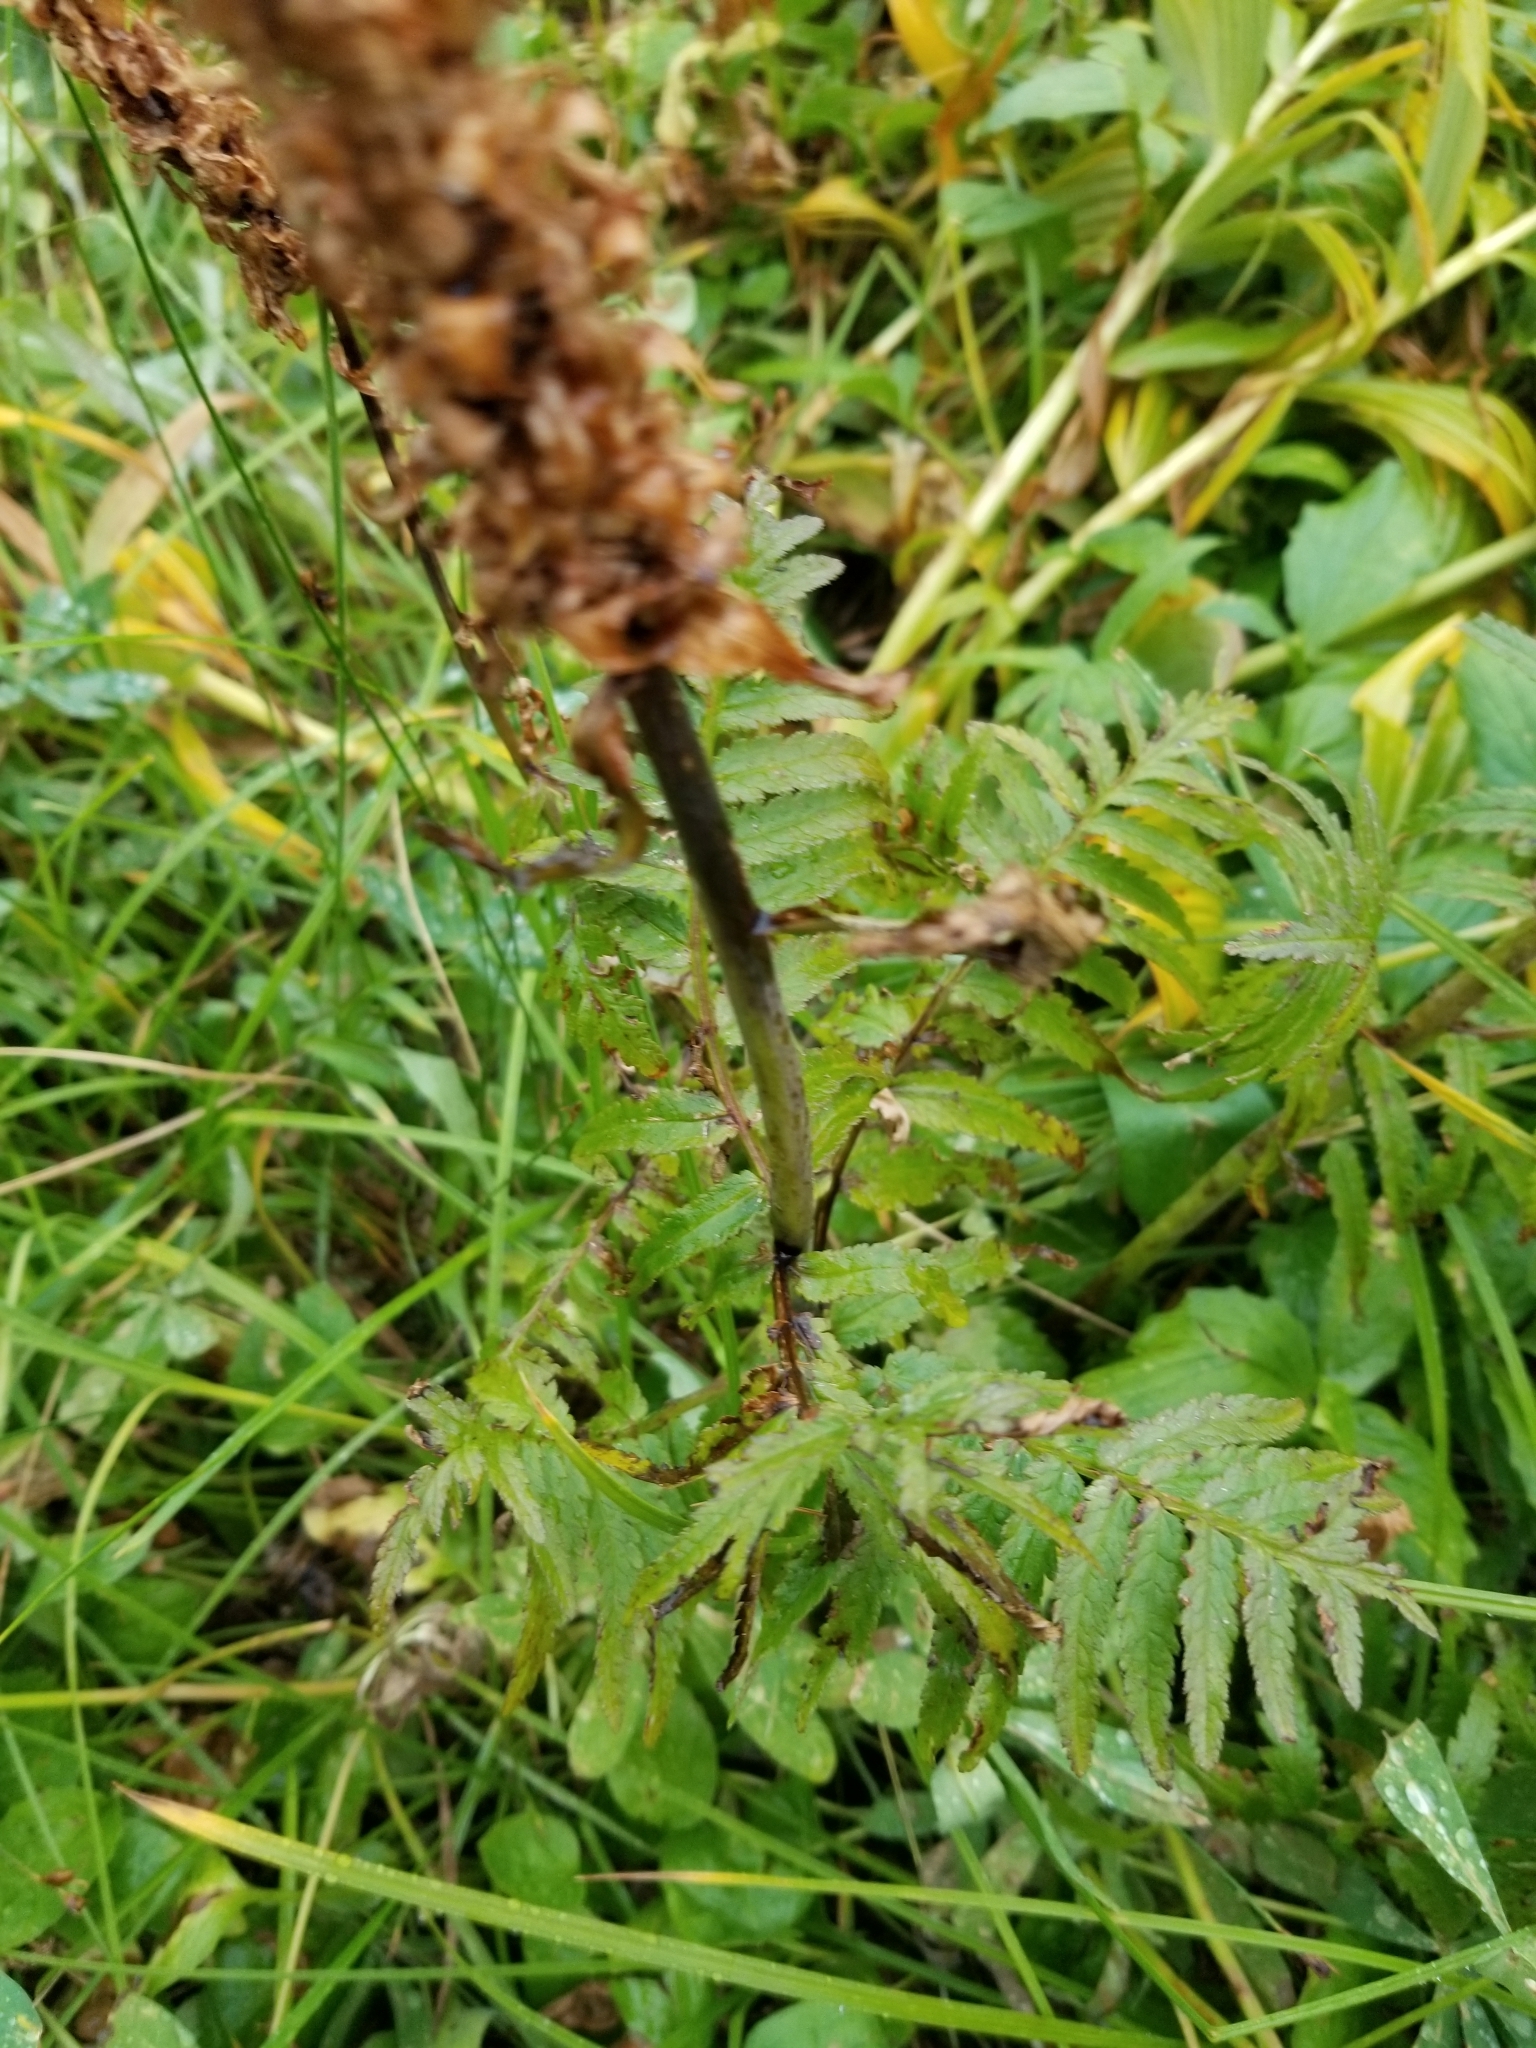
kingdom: Plantae
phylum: Tracheophyta
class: Magnoliopsida
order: Lamiales
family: Orobanchaceae
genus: Pedicularis
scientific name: Pedicularis bracteosa
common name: Bracted lousewort
